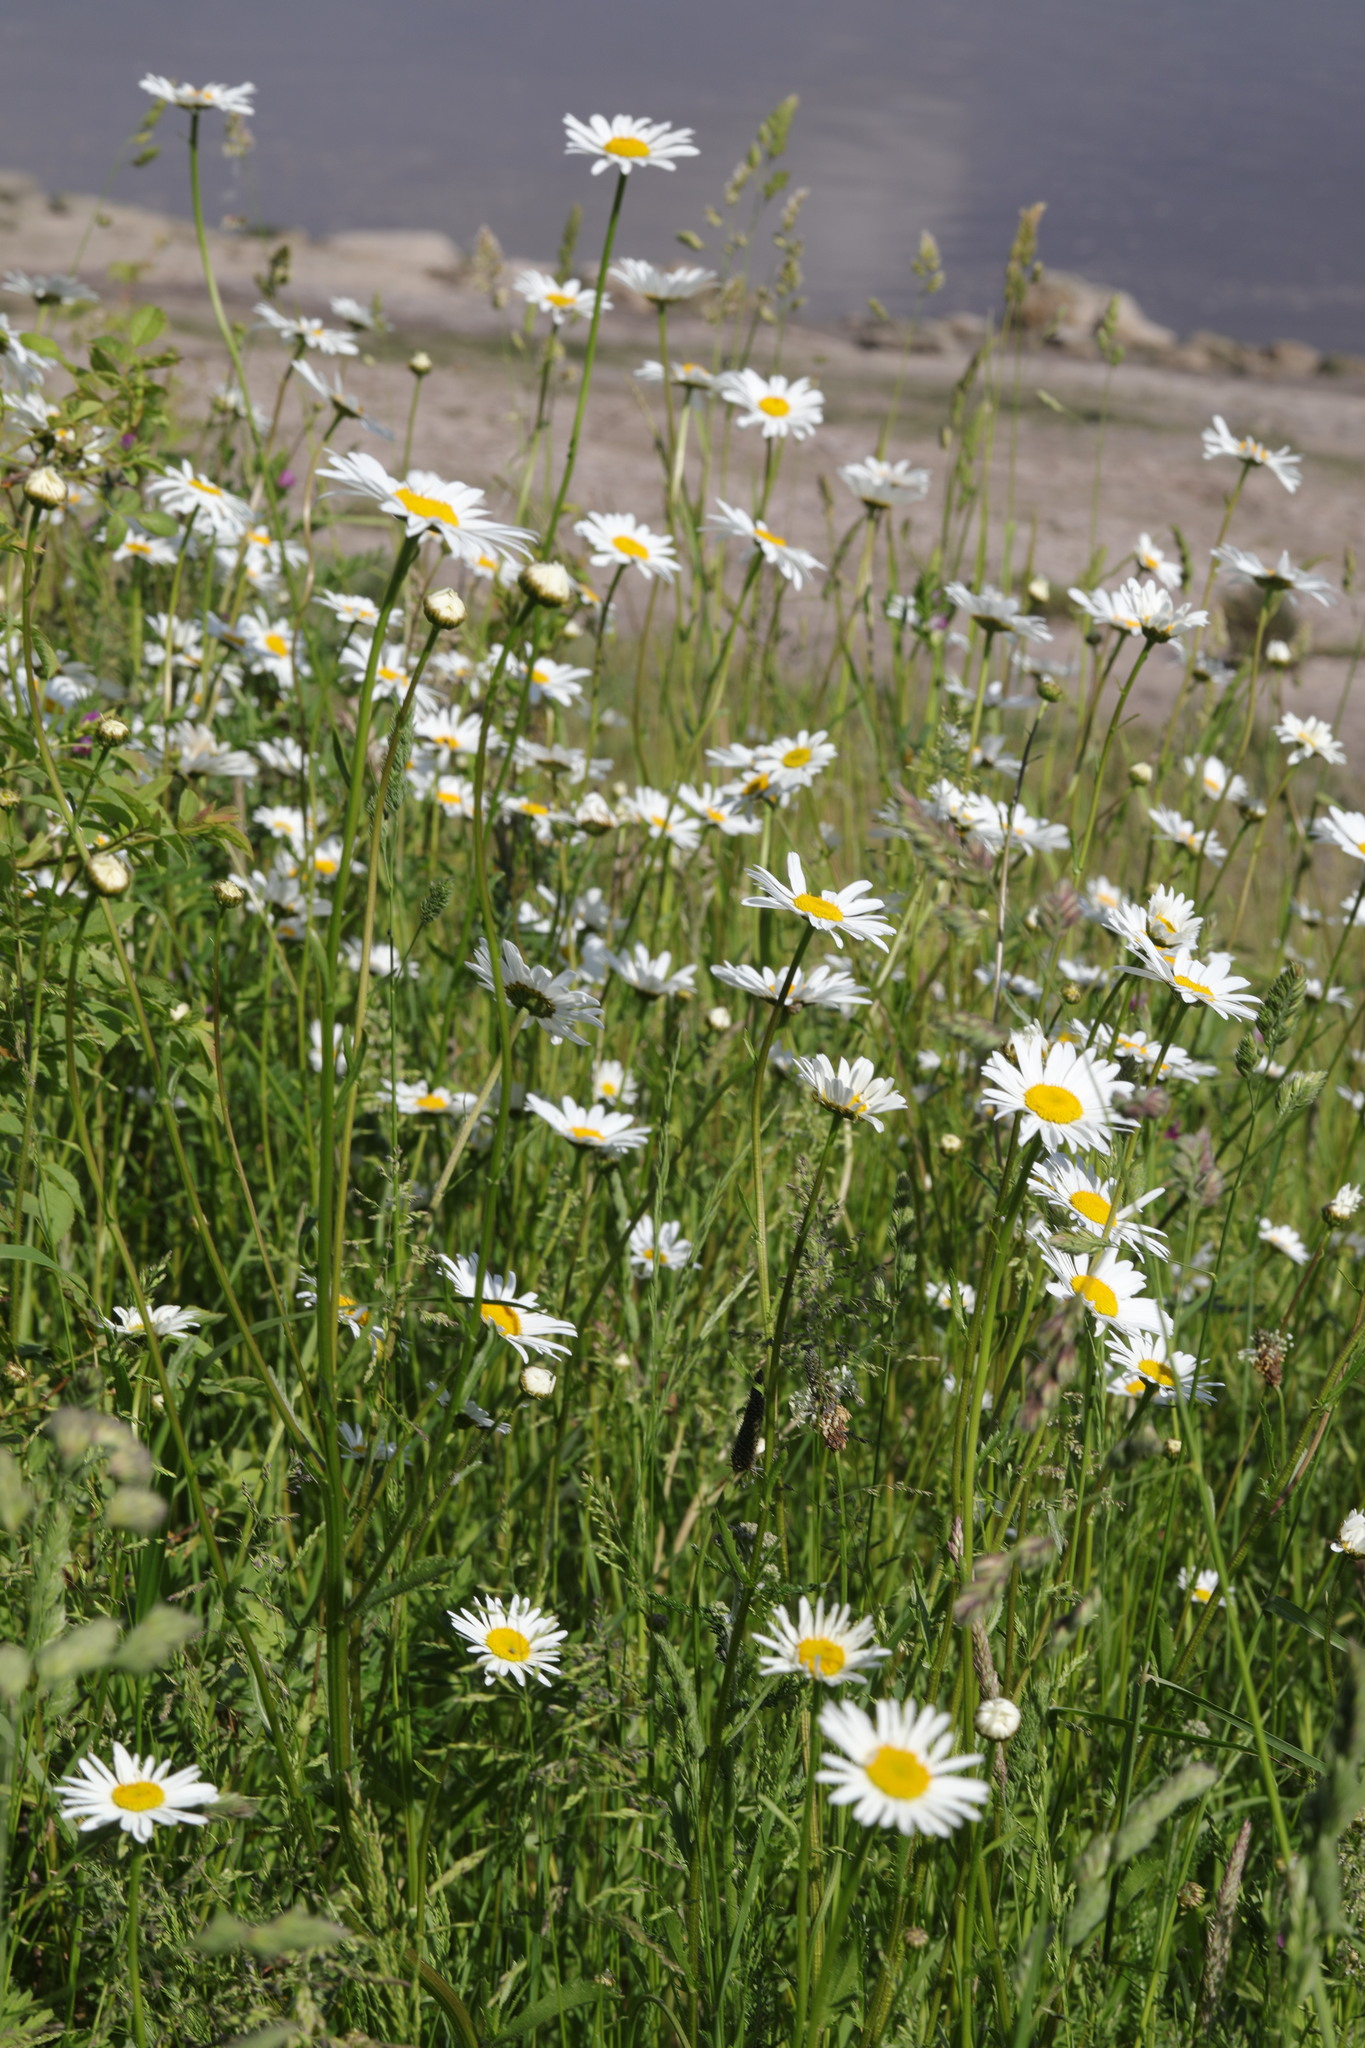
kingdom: Plantae
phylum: Tracheophyta
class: Magnoliopsida
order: Asterales
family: Asteraceae
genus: Leucanthemum
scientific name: Leucanthemum vulgare
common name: Oxeye daisy
